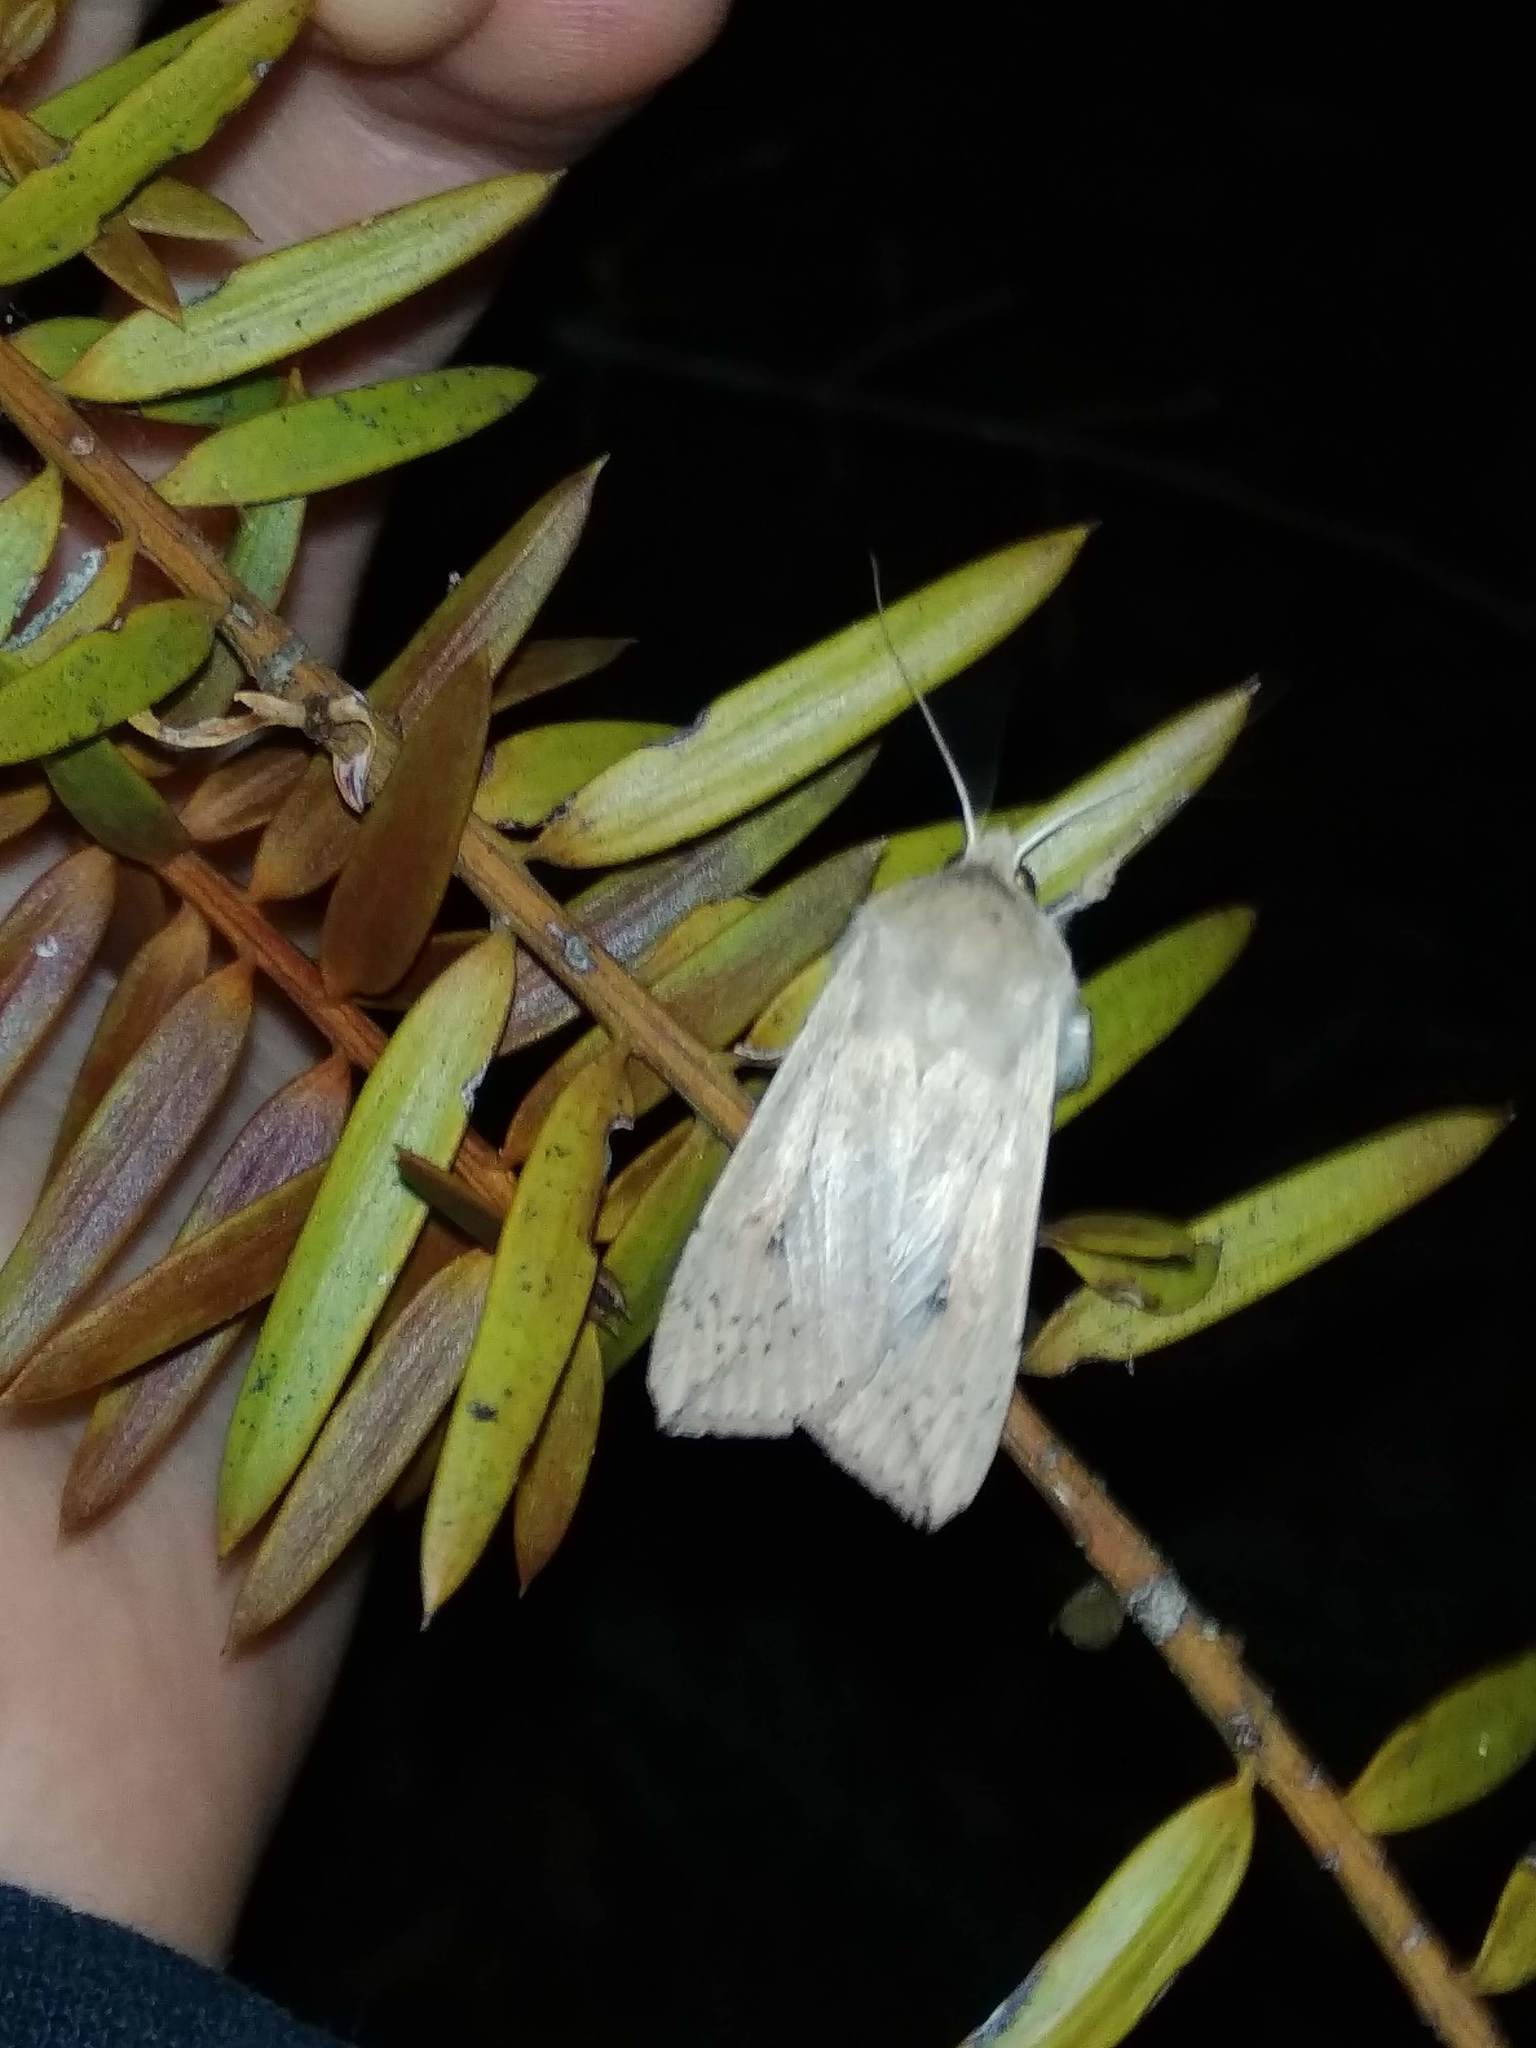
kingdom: Animalia
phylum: Arthropoda
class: Insecta
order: Lepidoptera
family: Noctuidae
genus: Mythimna
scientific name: Mythimna separata
